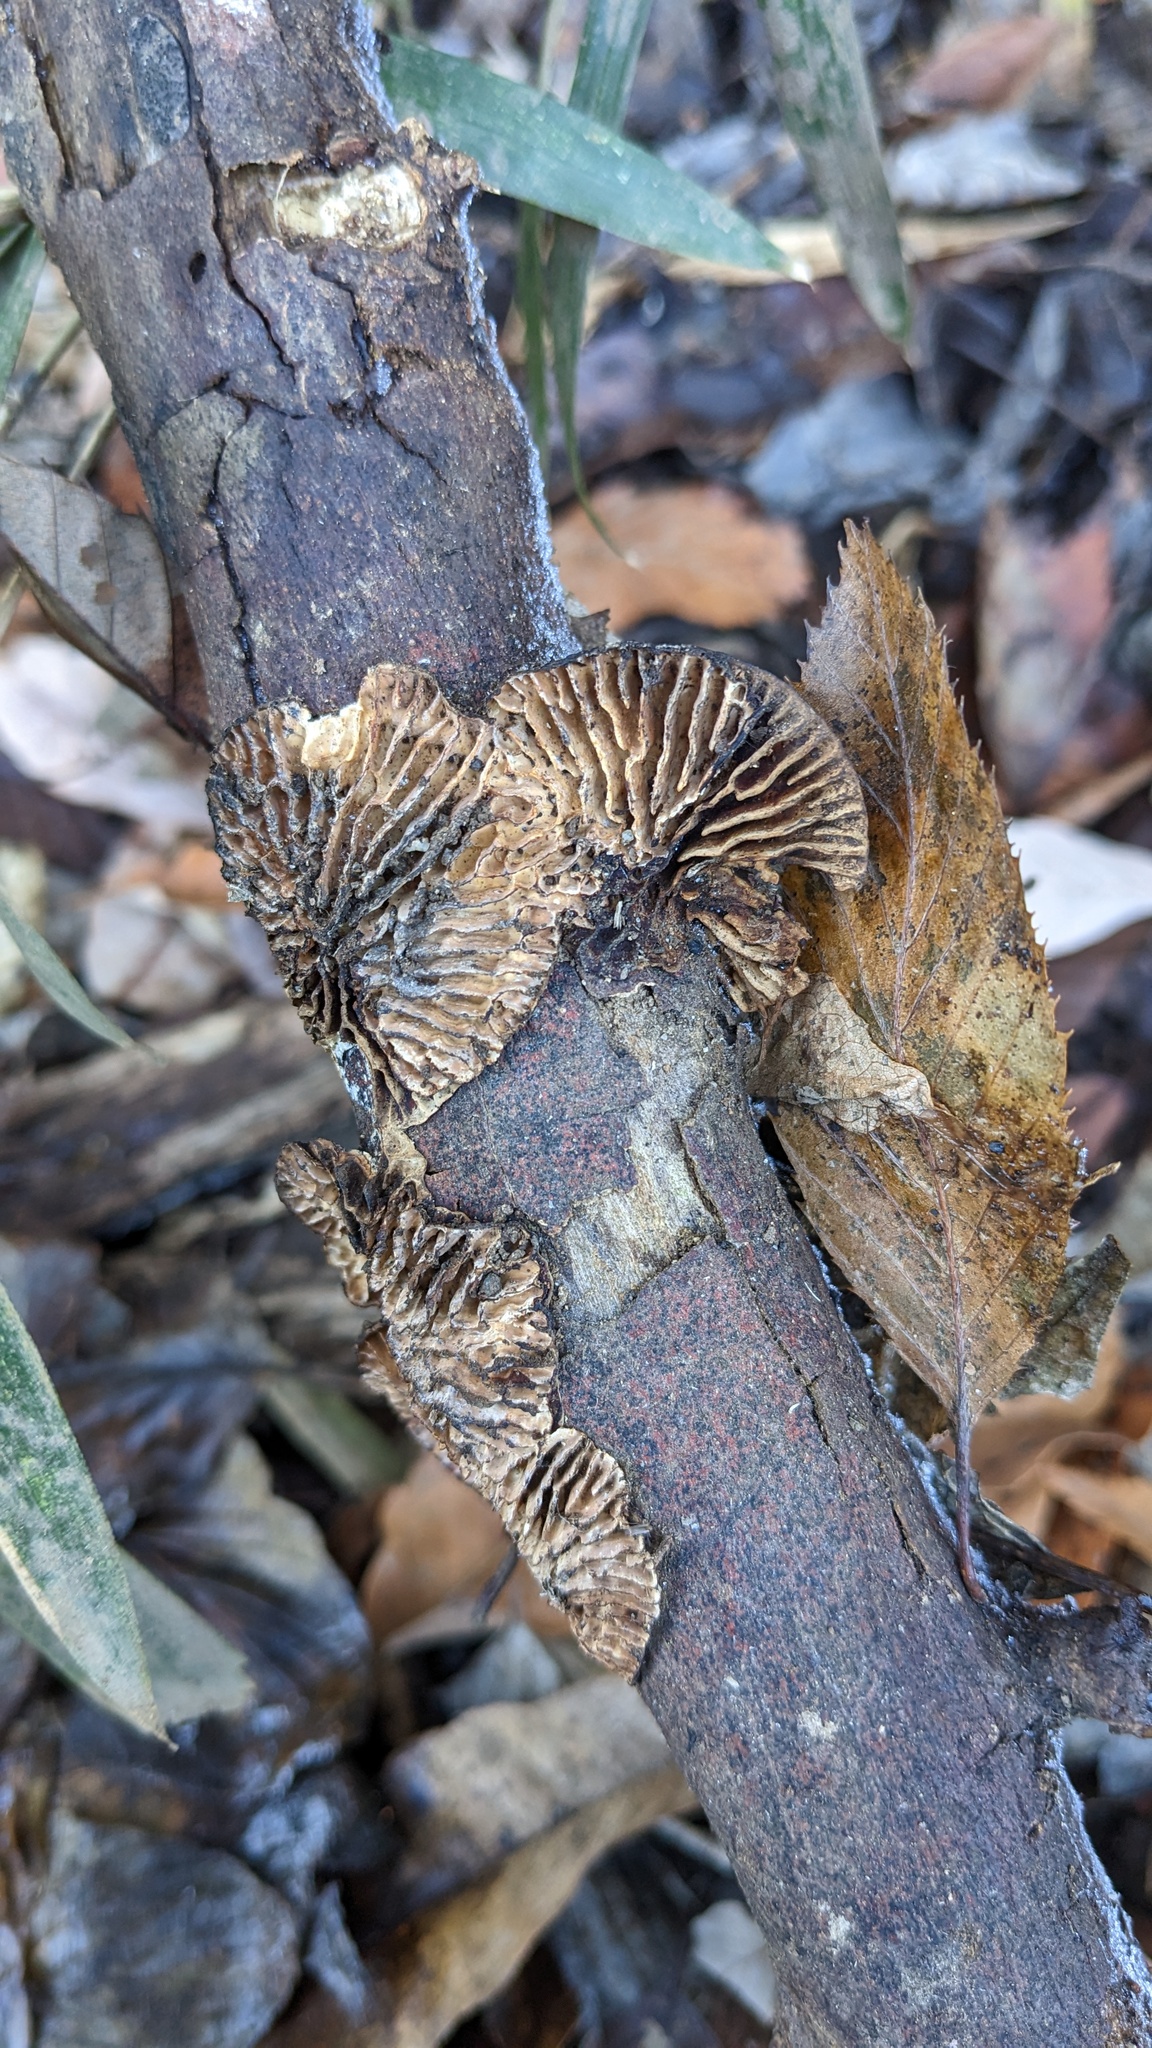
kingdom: Fungi
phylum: Basidiomycota
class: Agaricomycetes
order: Polyporales
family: Polyporaceae
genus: Lenzites
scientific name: Lenzites styracinus
